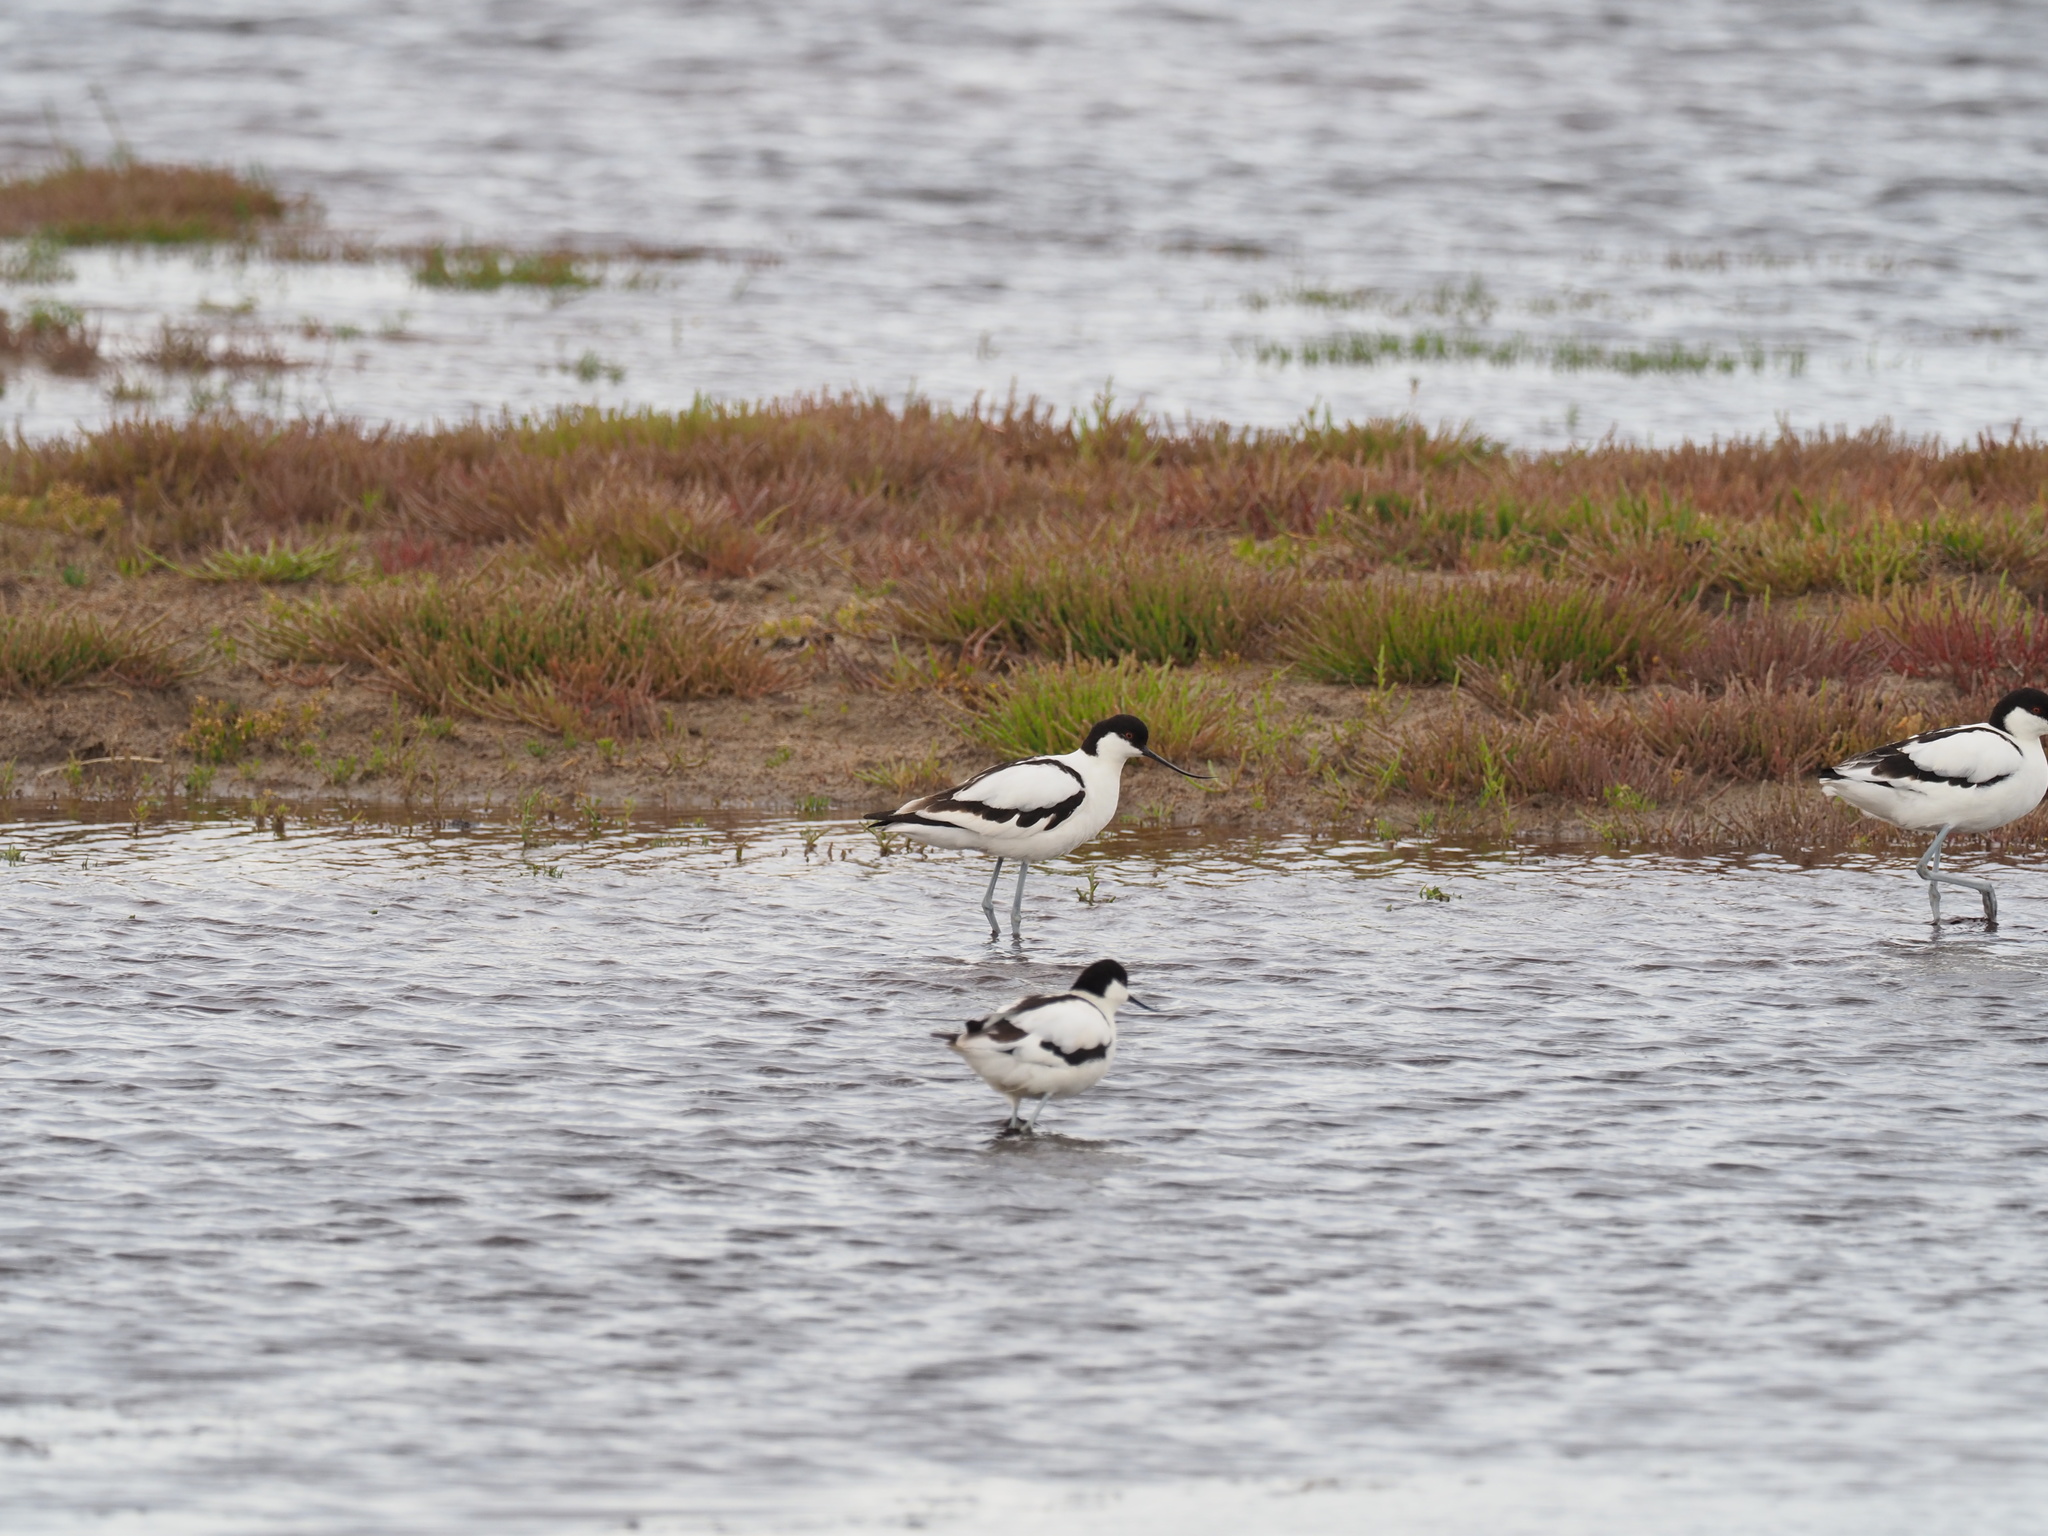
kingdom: Animalia
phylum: Chordata
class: Aves
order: Charadriiformes
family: Recurvirostridae
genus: Recurvirostra
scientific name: Recurvirostra avosetta
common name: Pied avocet
